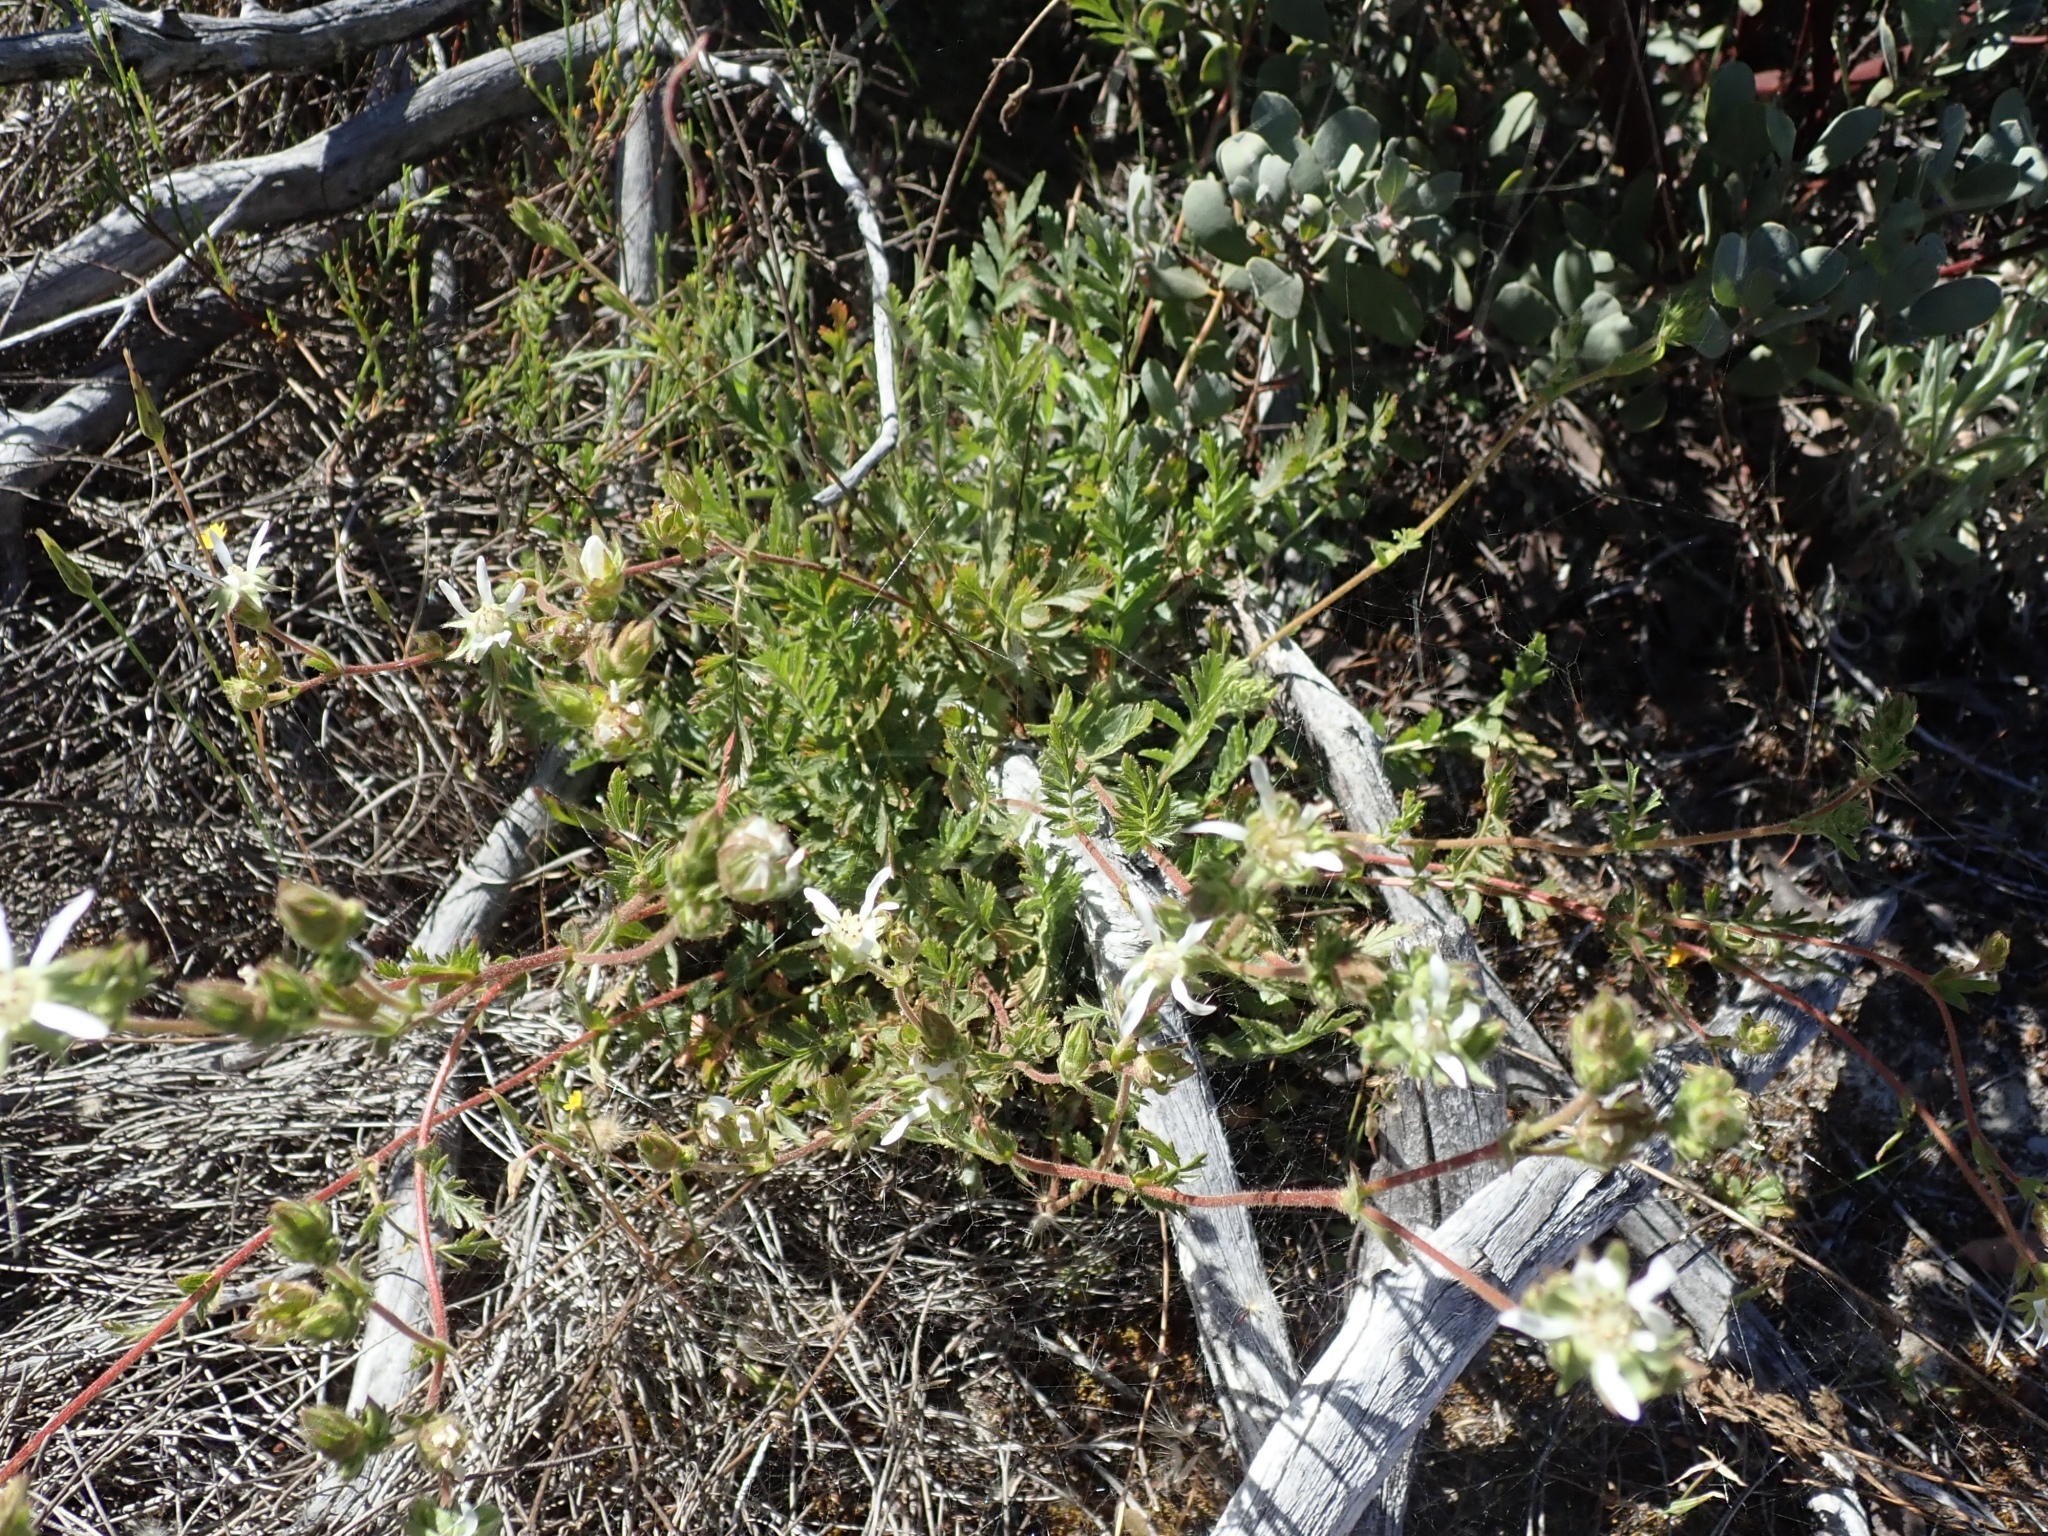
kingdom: Plantae
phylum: Tracheophyta
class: Magnoliopsida
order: Rosales
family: Rosaceae
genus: Potentilla
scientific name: Potentilla
